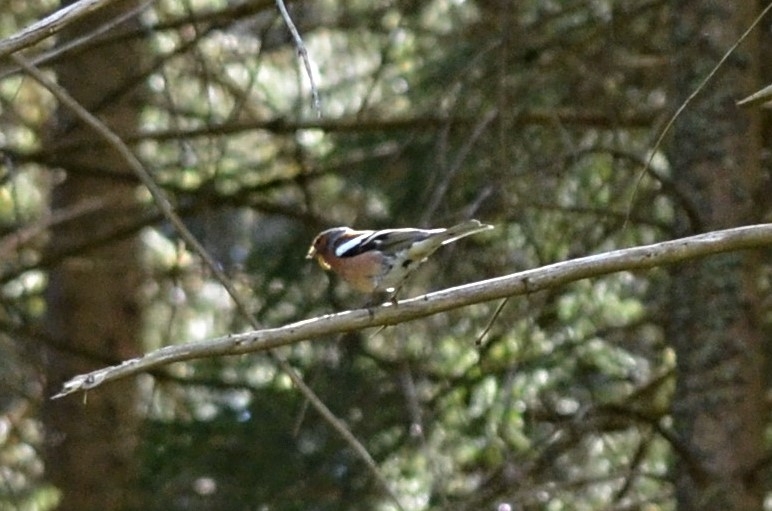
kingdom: Animalia
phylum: Chordata
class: Aves
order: Passeriformes
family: Fringillidae
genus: Fringilla
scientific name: Fringilla coelebs
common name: Common chaffinch
